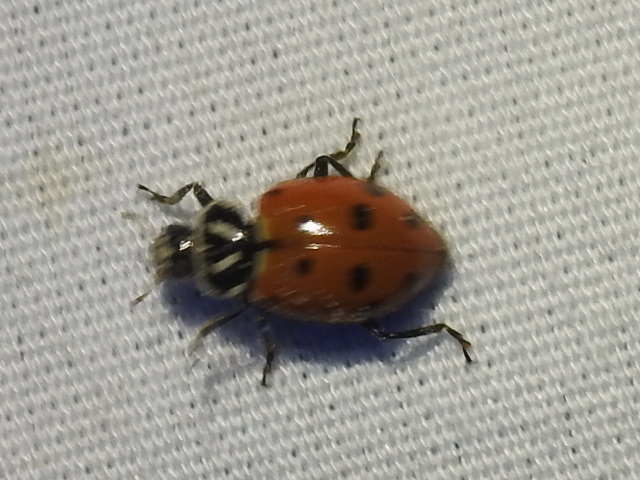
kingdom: Animalia
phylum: Arthropoda
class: Insecta
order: Coleoptera
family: Coccinellidae
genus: Hippodamia
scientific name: Hippodamia convergens
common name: Convergent lady beetle
